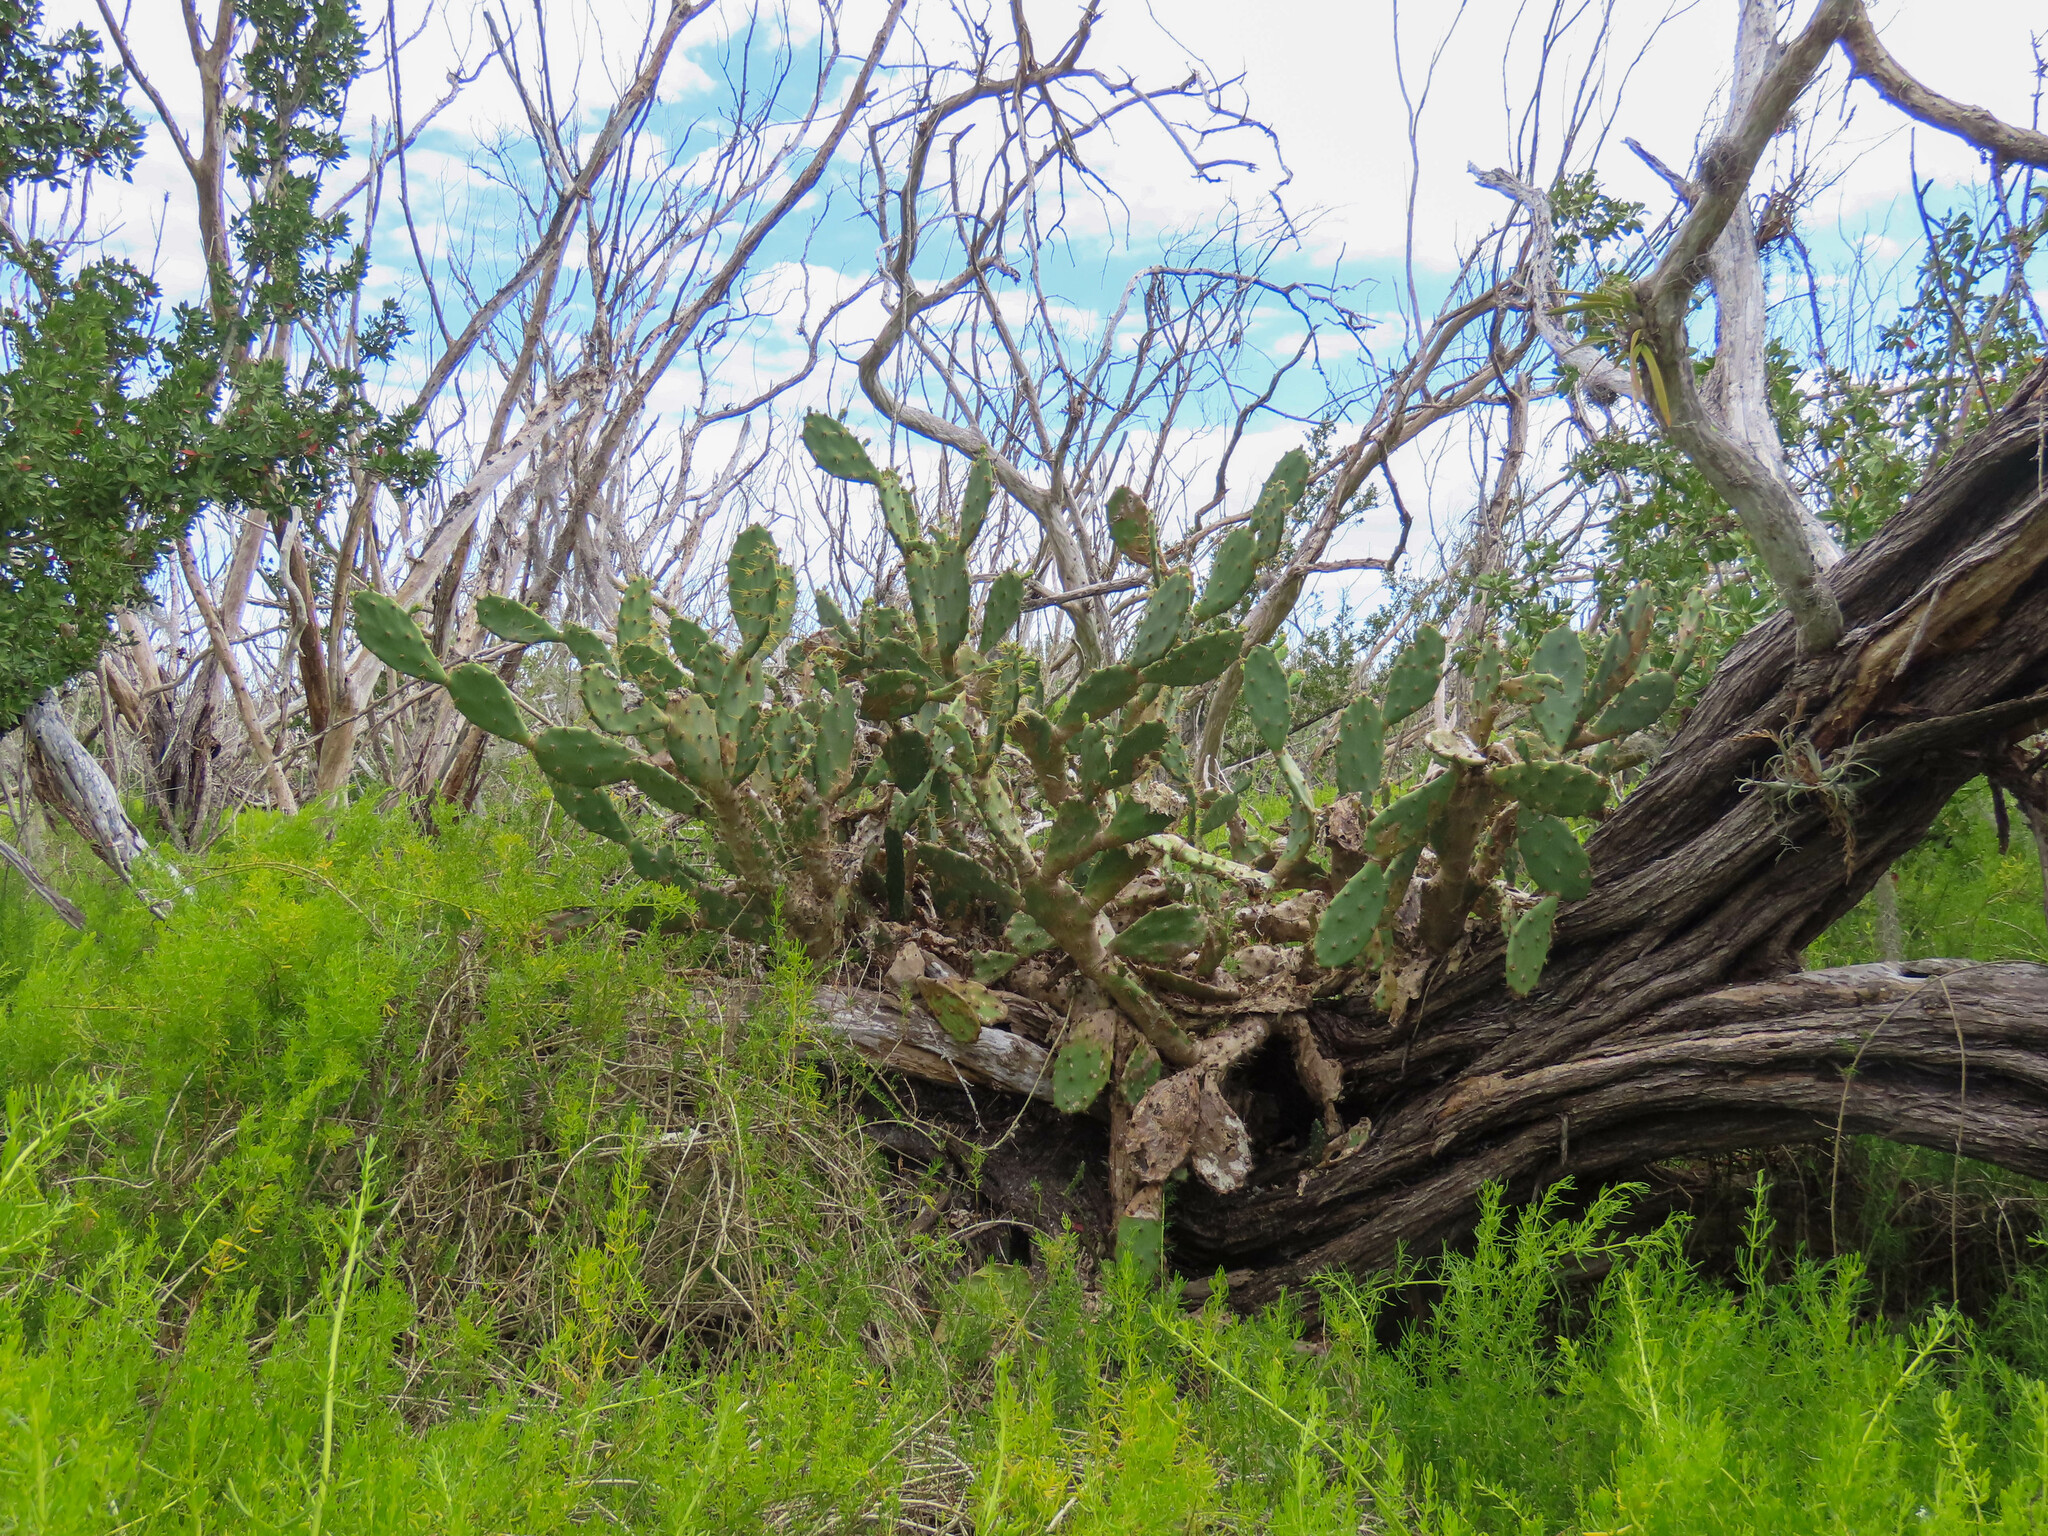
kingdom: Plantae
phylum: Tracheophyta
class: Magnoliopsida
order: Caryophyllales
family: Cactaceae
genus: Opuntia
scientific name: Opuntia stricta
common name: Erect pricklypear
